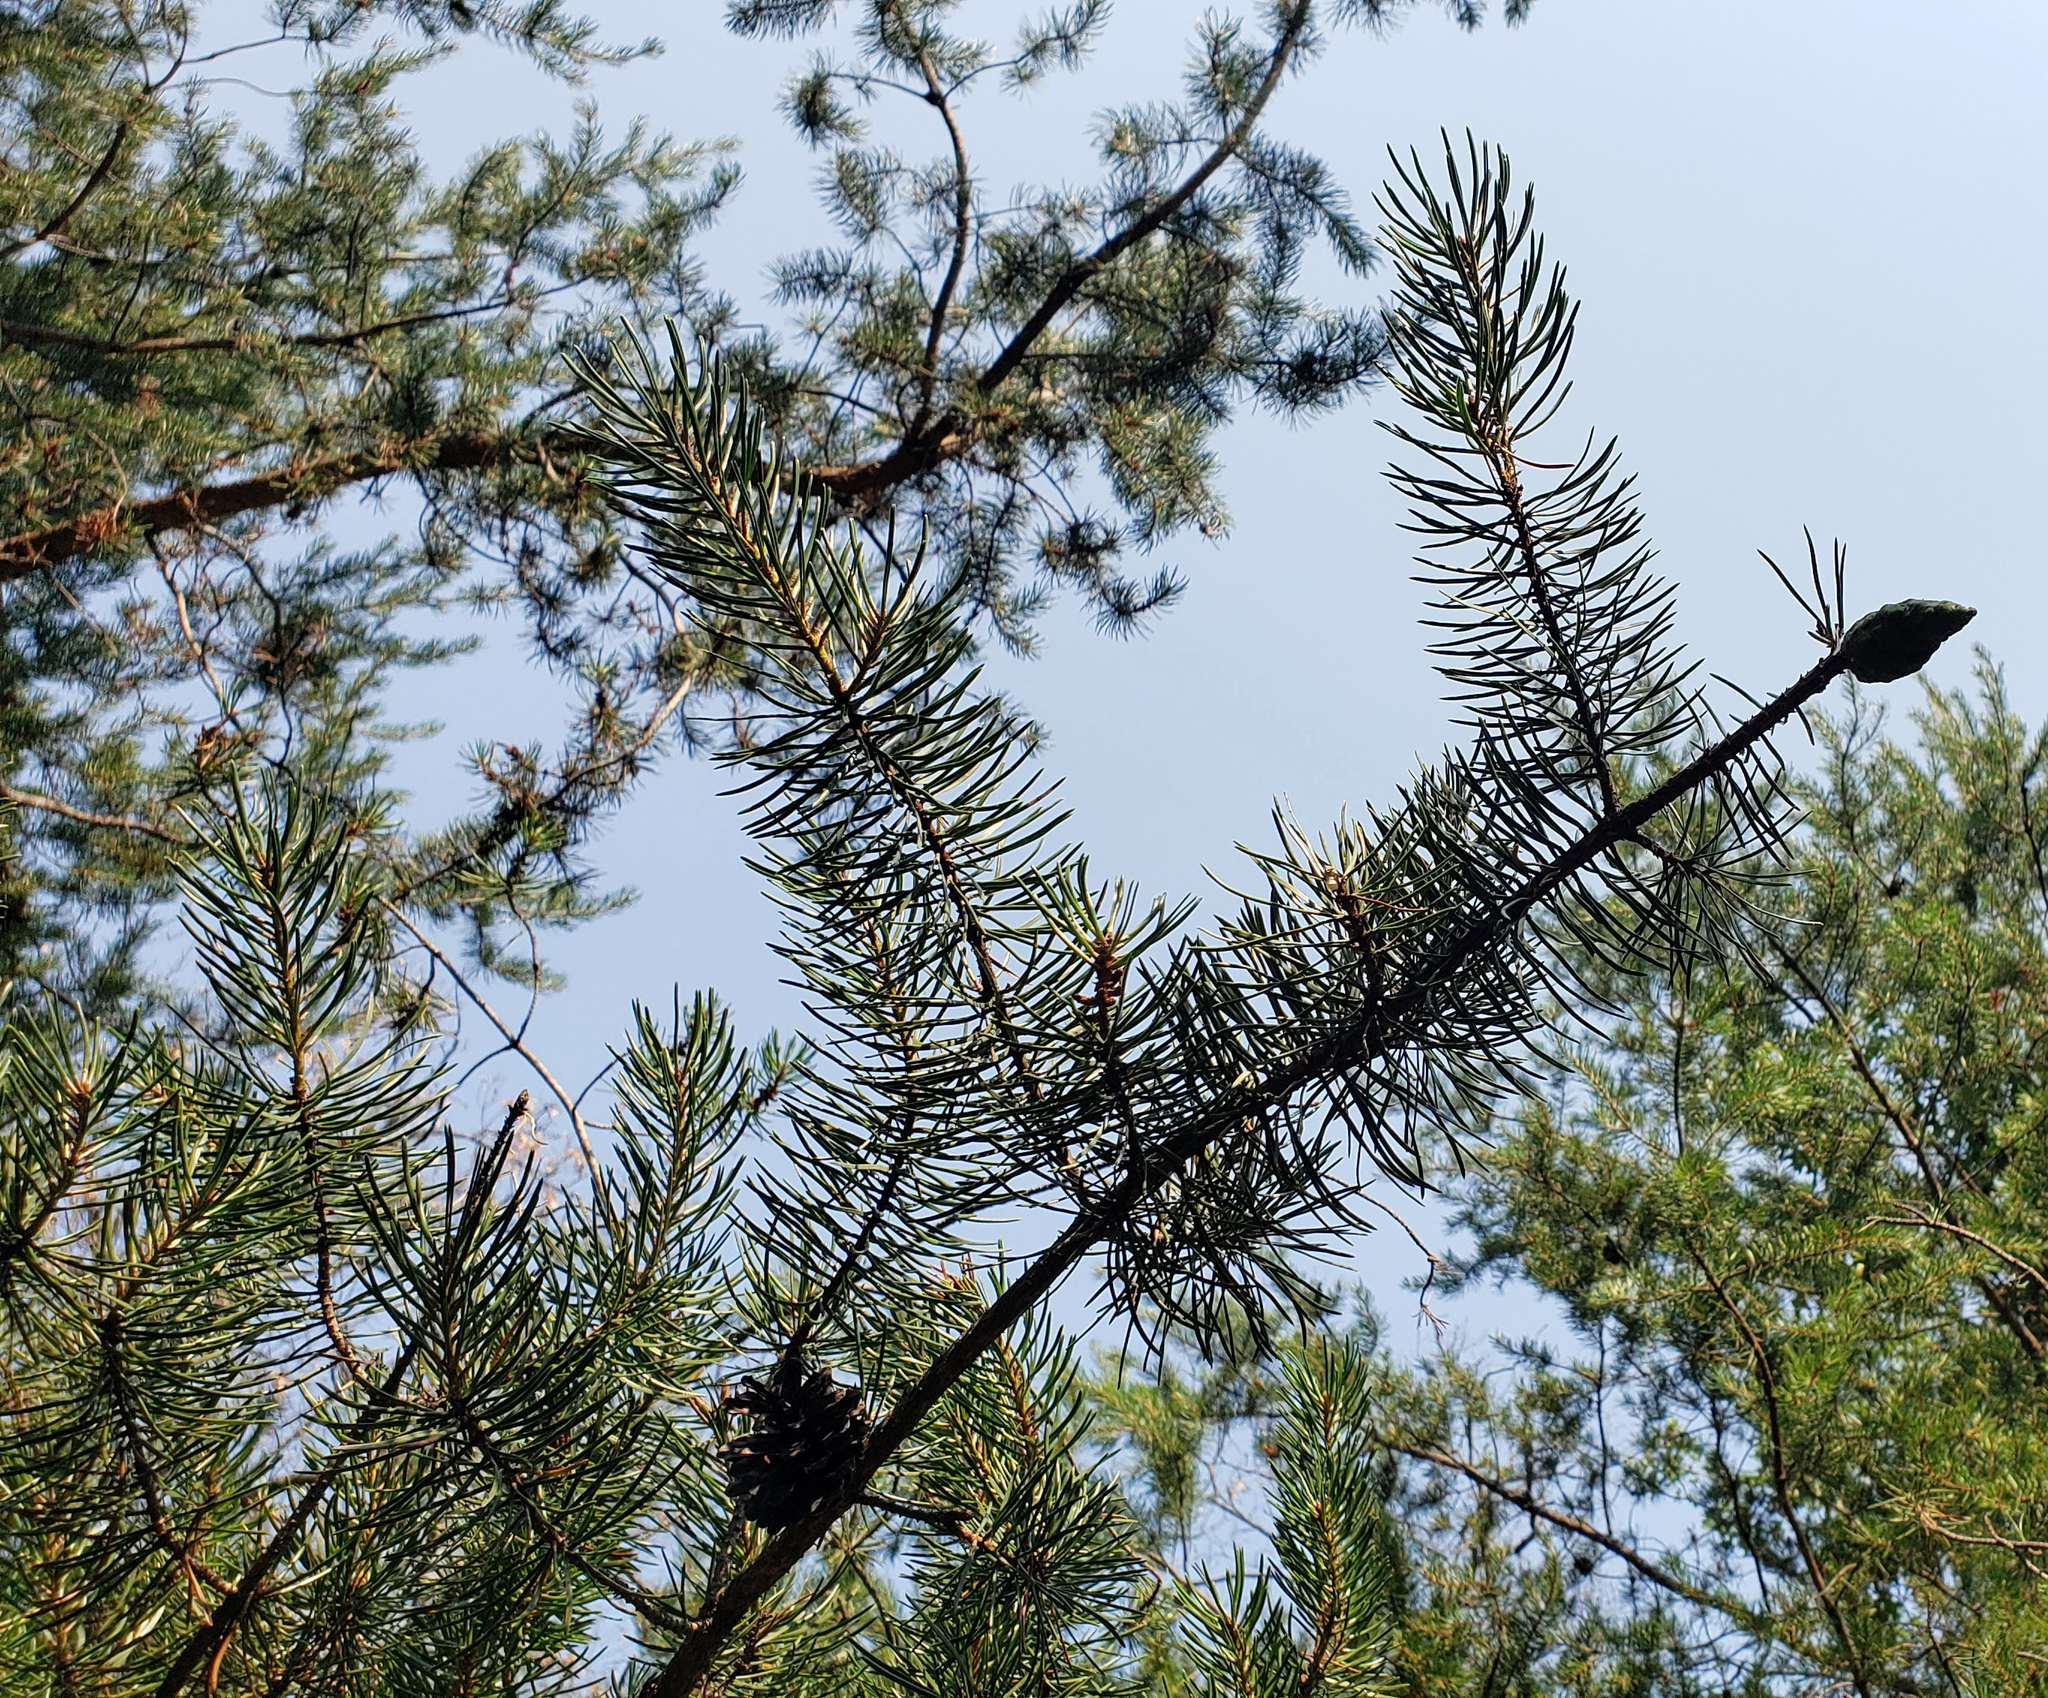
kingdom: Plantae
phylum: Tracheophyta
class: Pinopsida
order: Pinales
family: Pinaceae
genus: Pinus
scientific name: Pinus banksiana
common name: Jack pine
